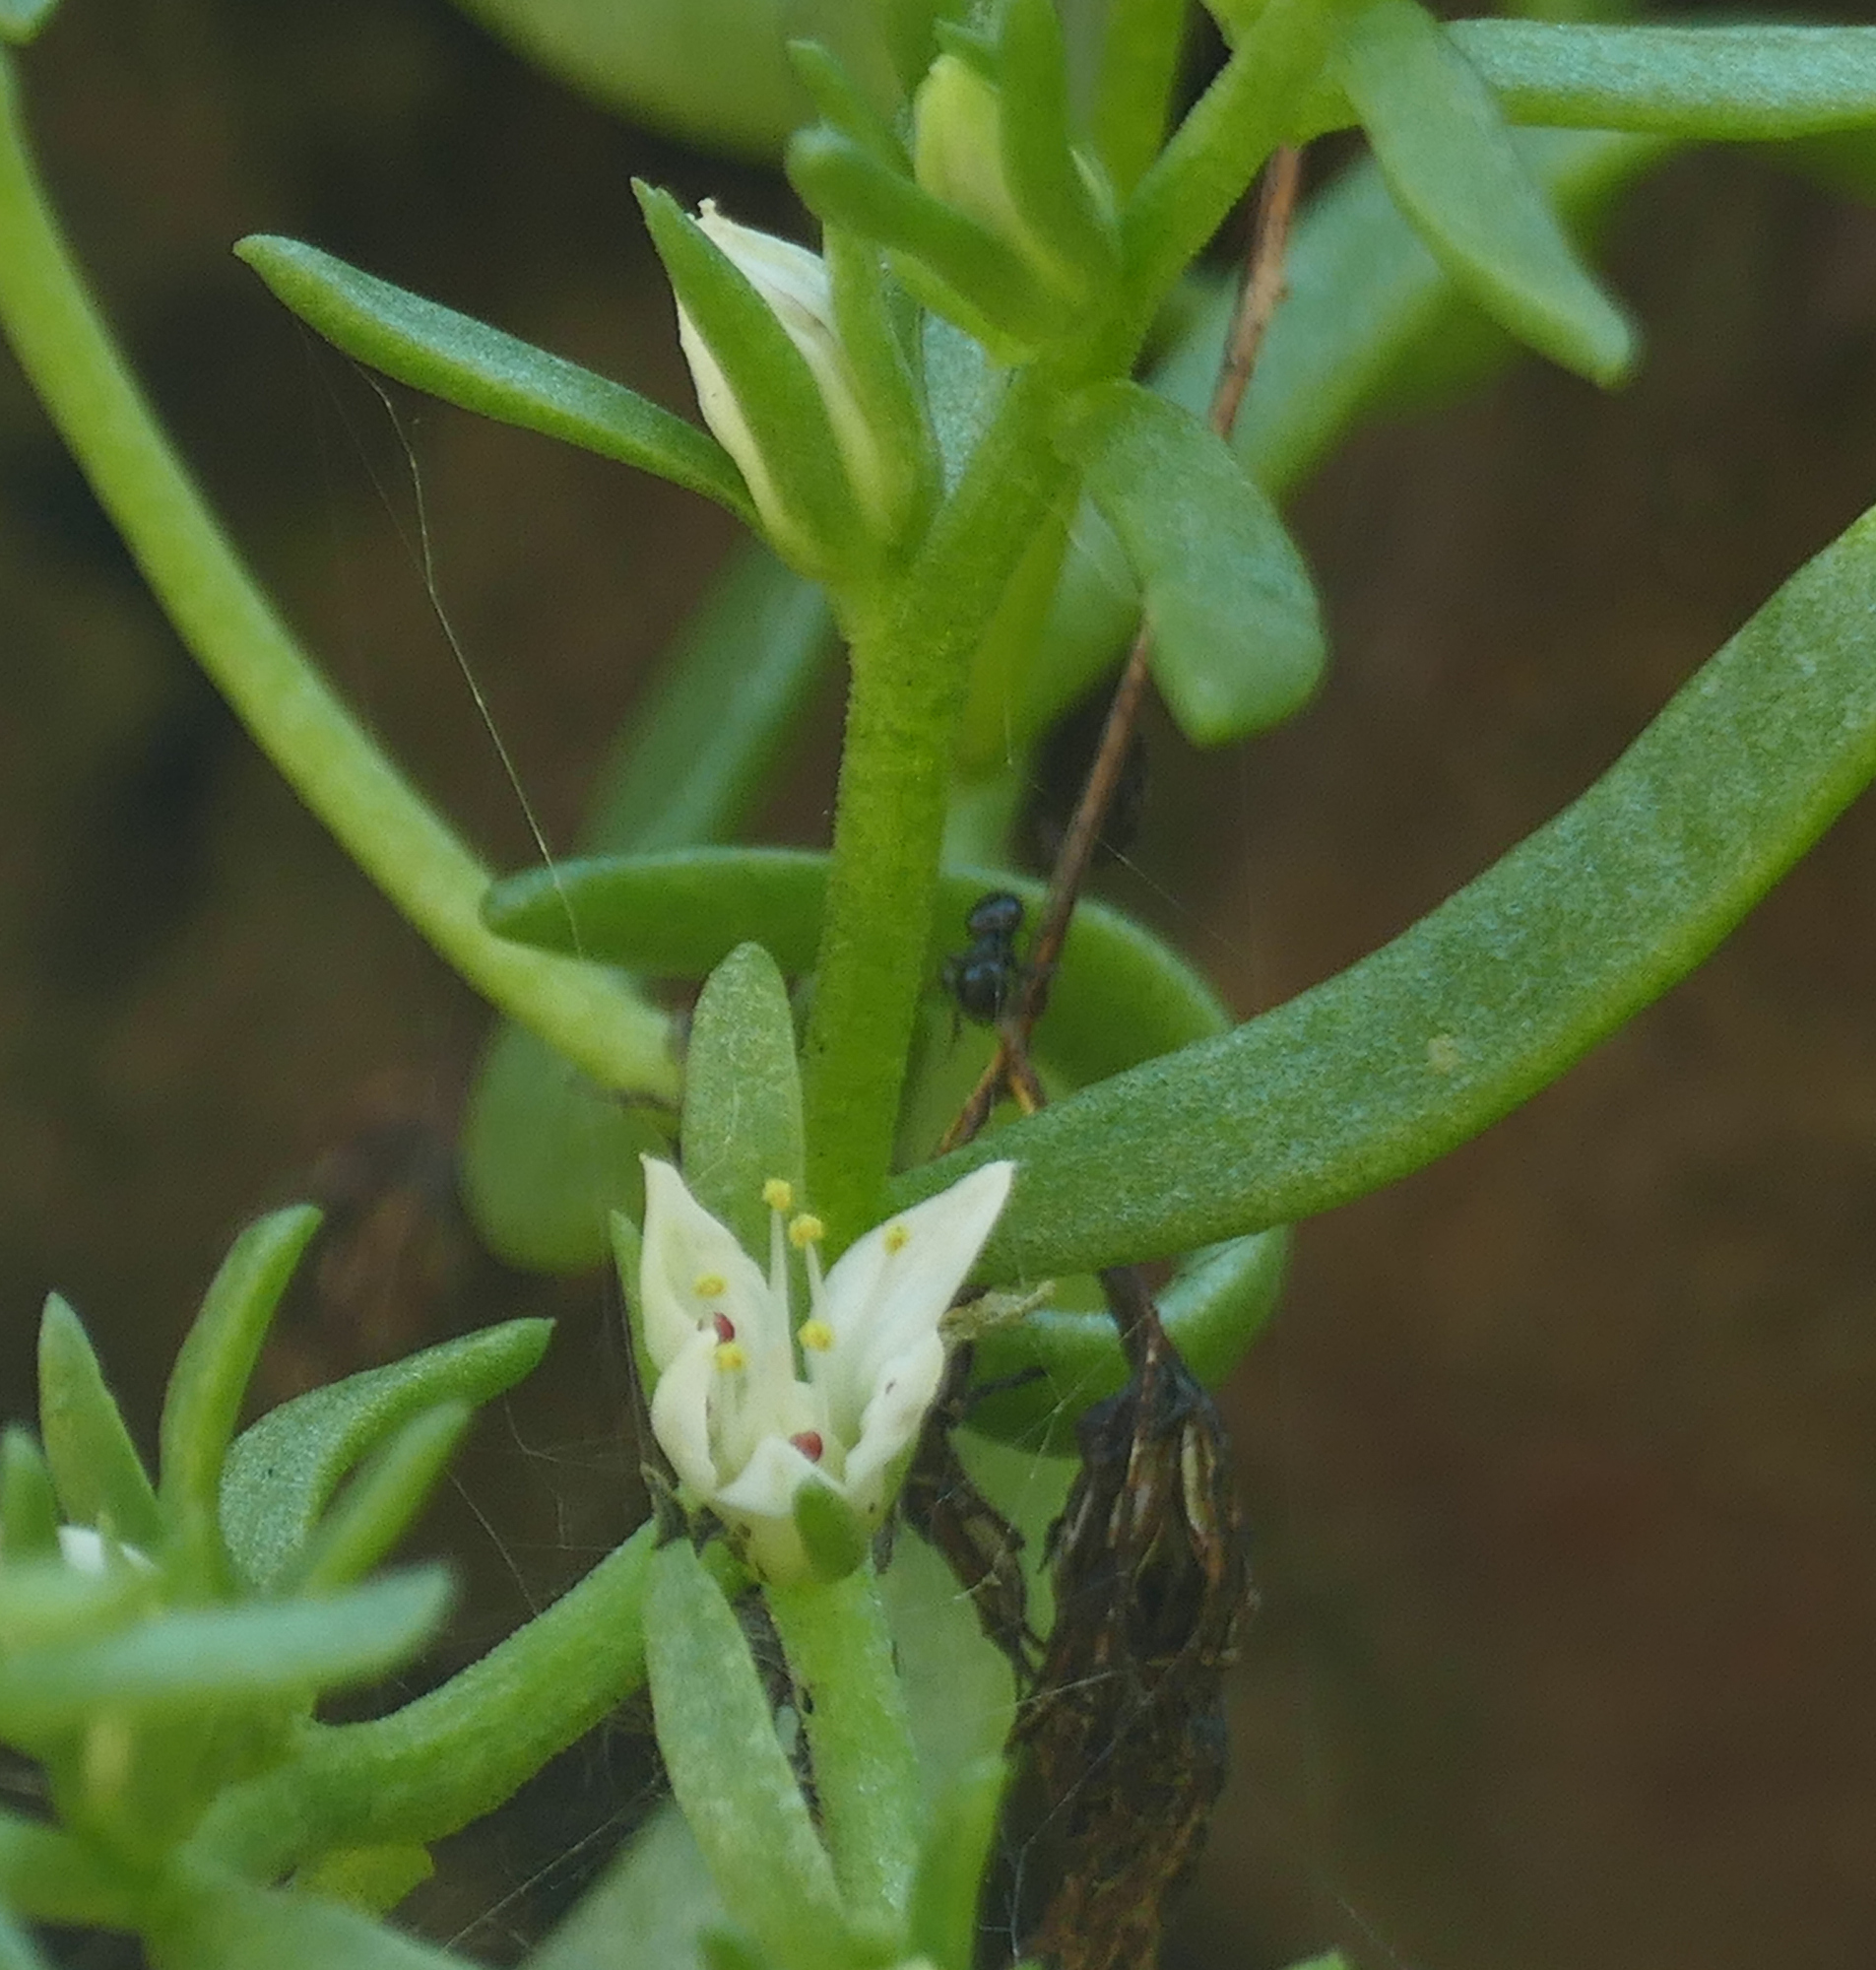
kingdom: Plantae
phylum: Tracheophyta
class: Magnoliopsida
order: Saxifragales
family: Crassulaceae
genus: Sedum
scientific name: Sedum cockerellii
